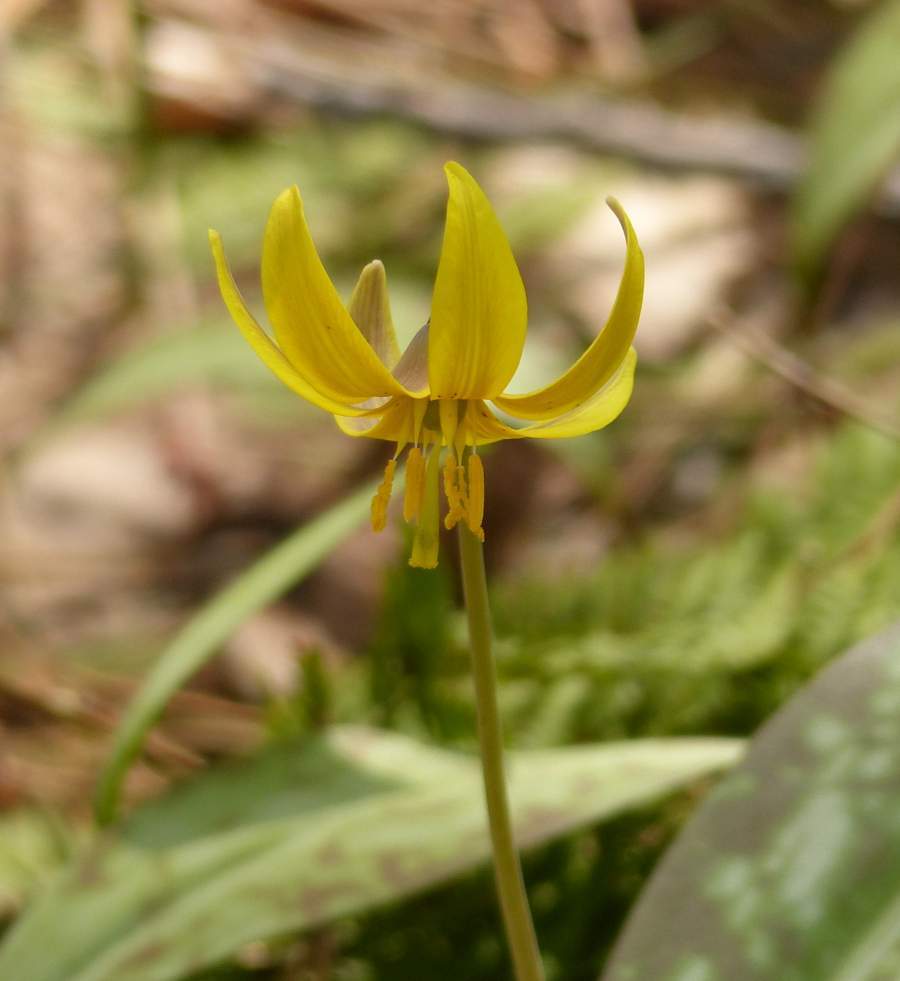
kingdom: Plantae
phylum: Tracheophyta
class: Liliopsida
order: Liliales
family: Liliaceae
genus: Erythronium
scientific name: Erythronium americanum
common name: Yellow adder's-tongue
